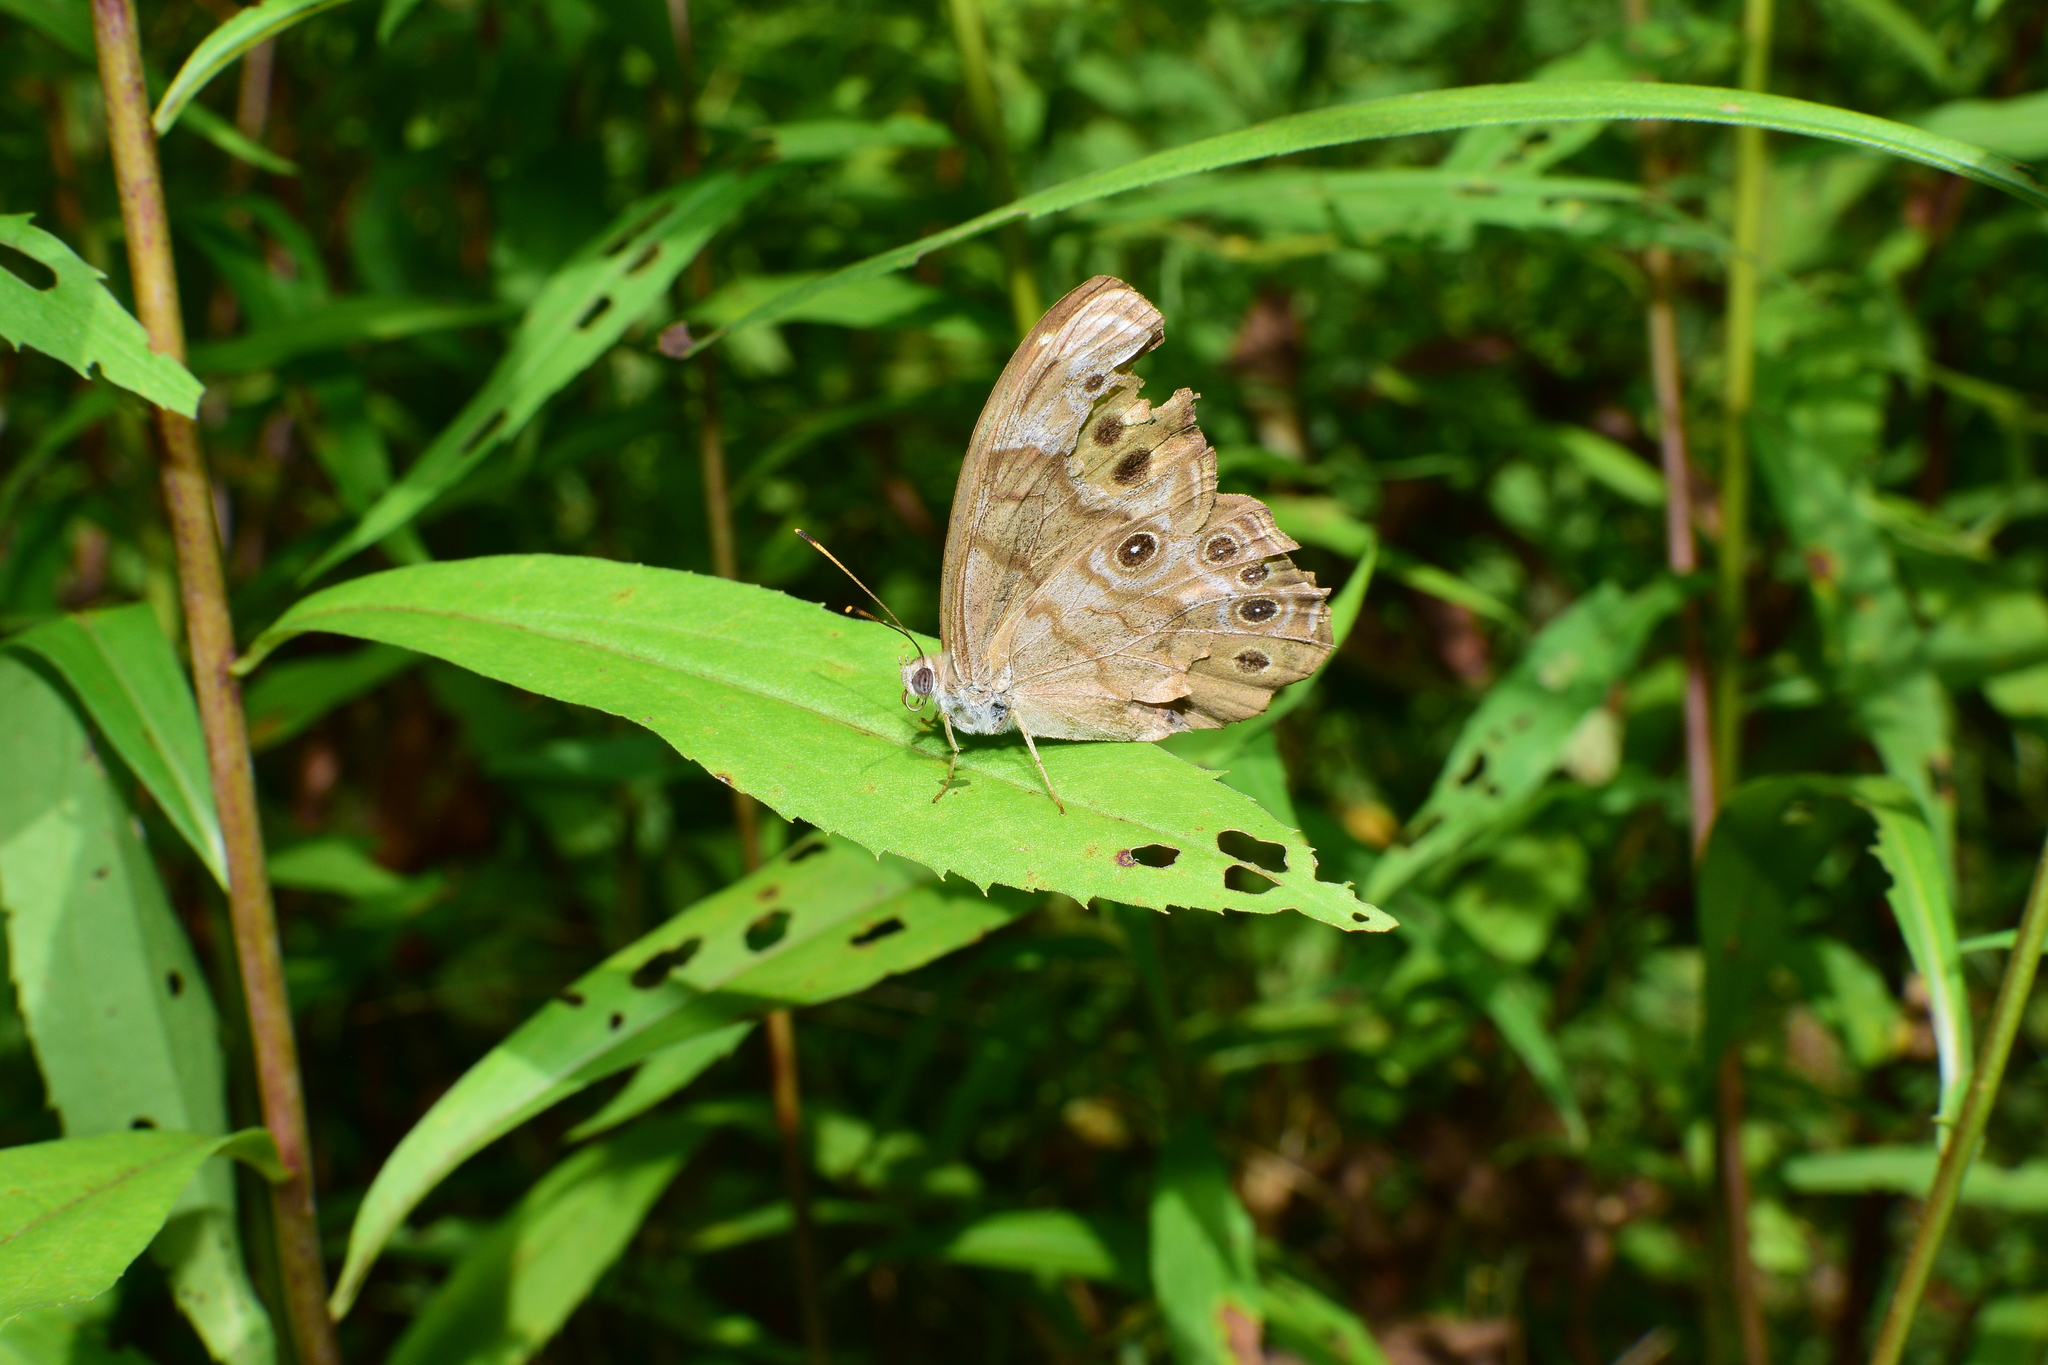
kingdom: Animalia
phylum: Arthropoda
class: Insecta
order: Lepidoptera
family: Nymphalidae
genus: Lethe
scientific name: Lethe anthedon
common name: Northern pearly-eye
